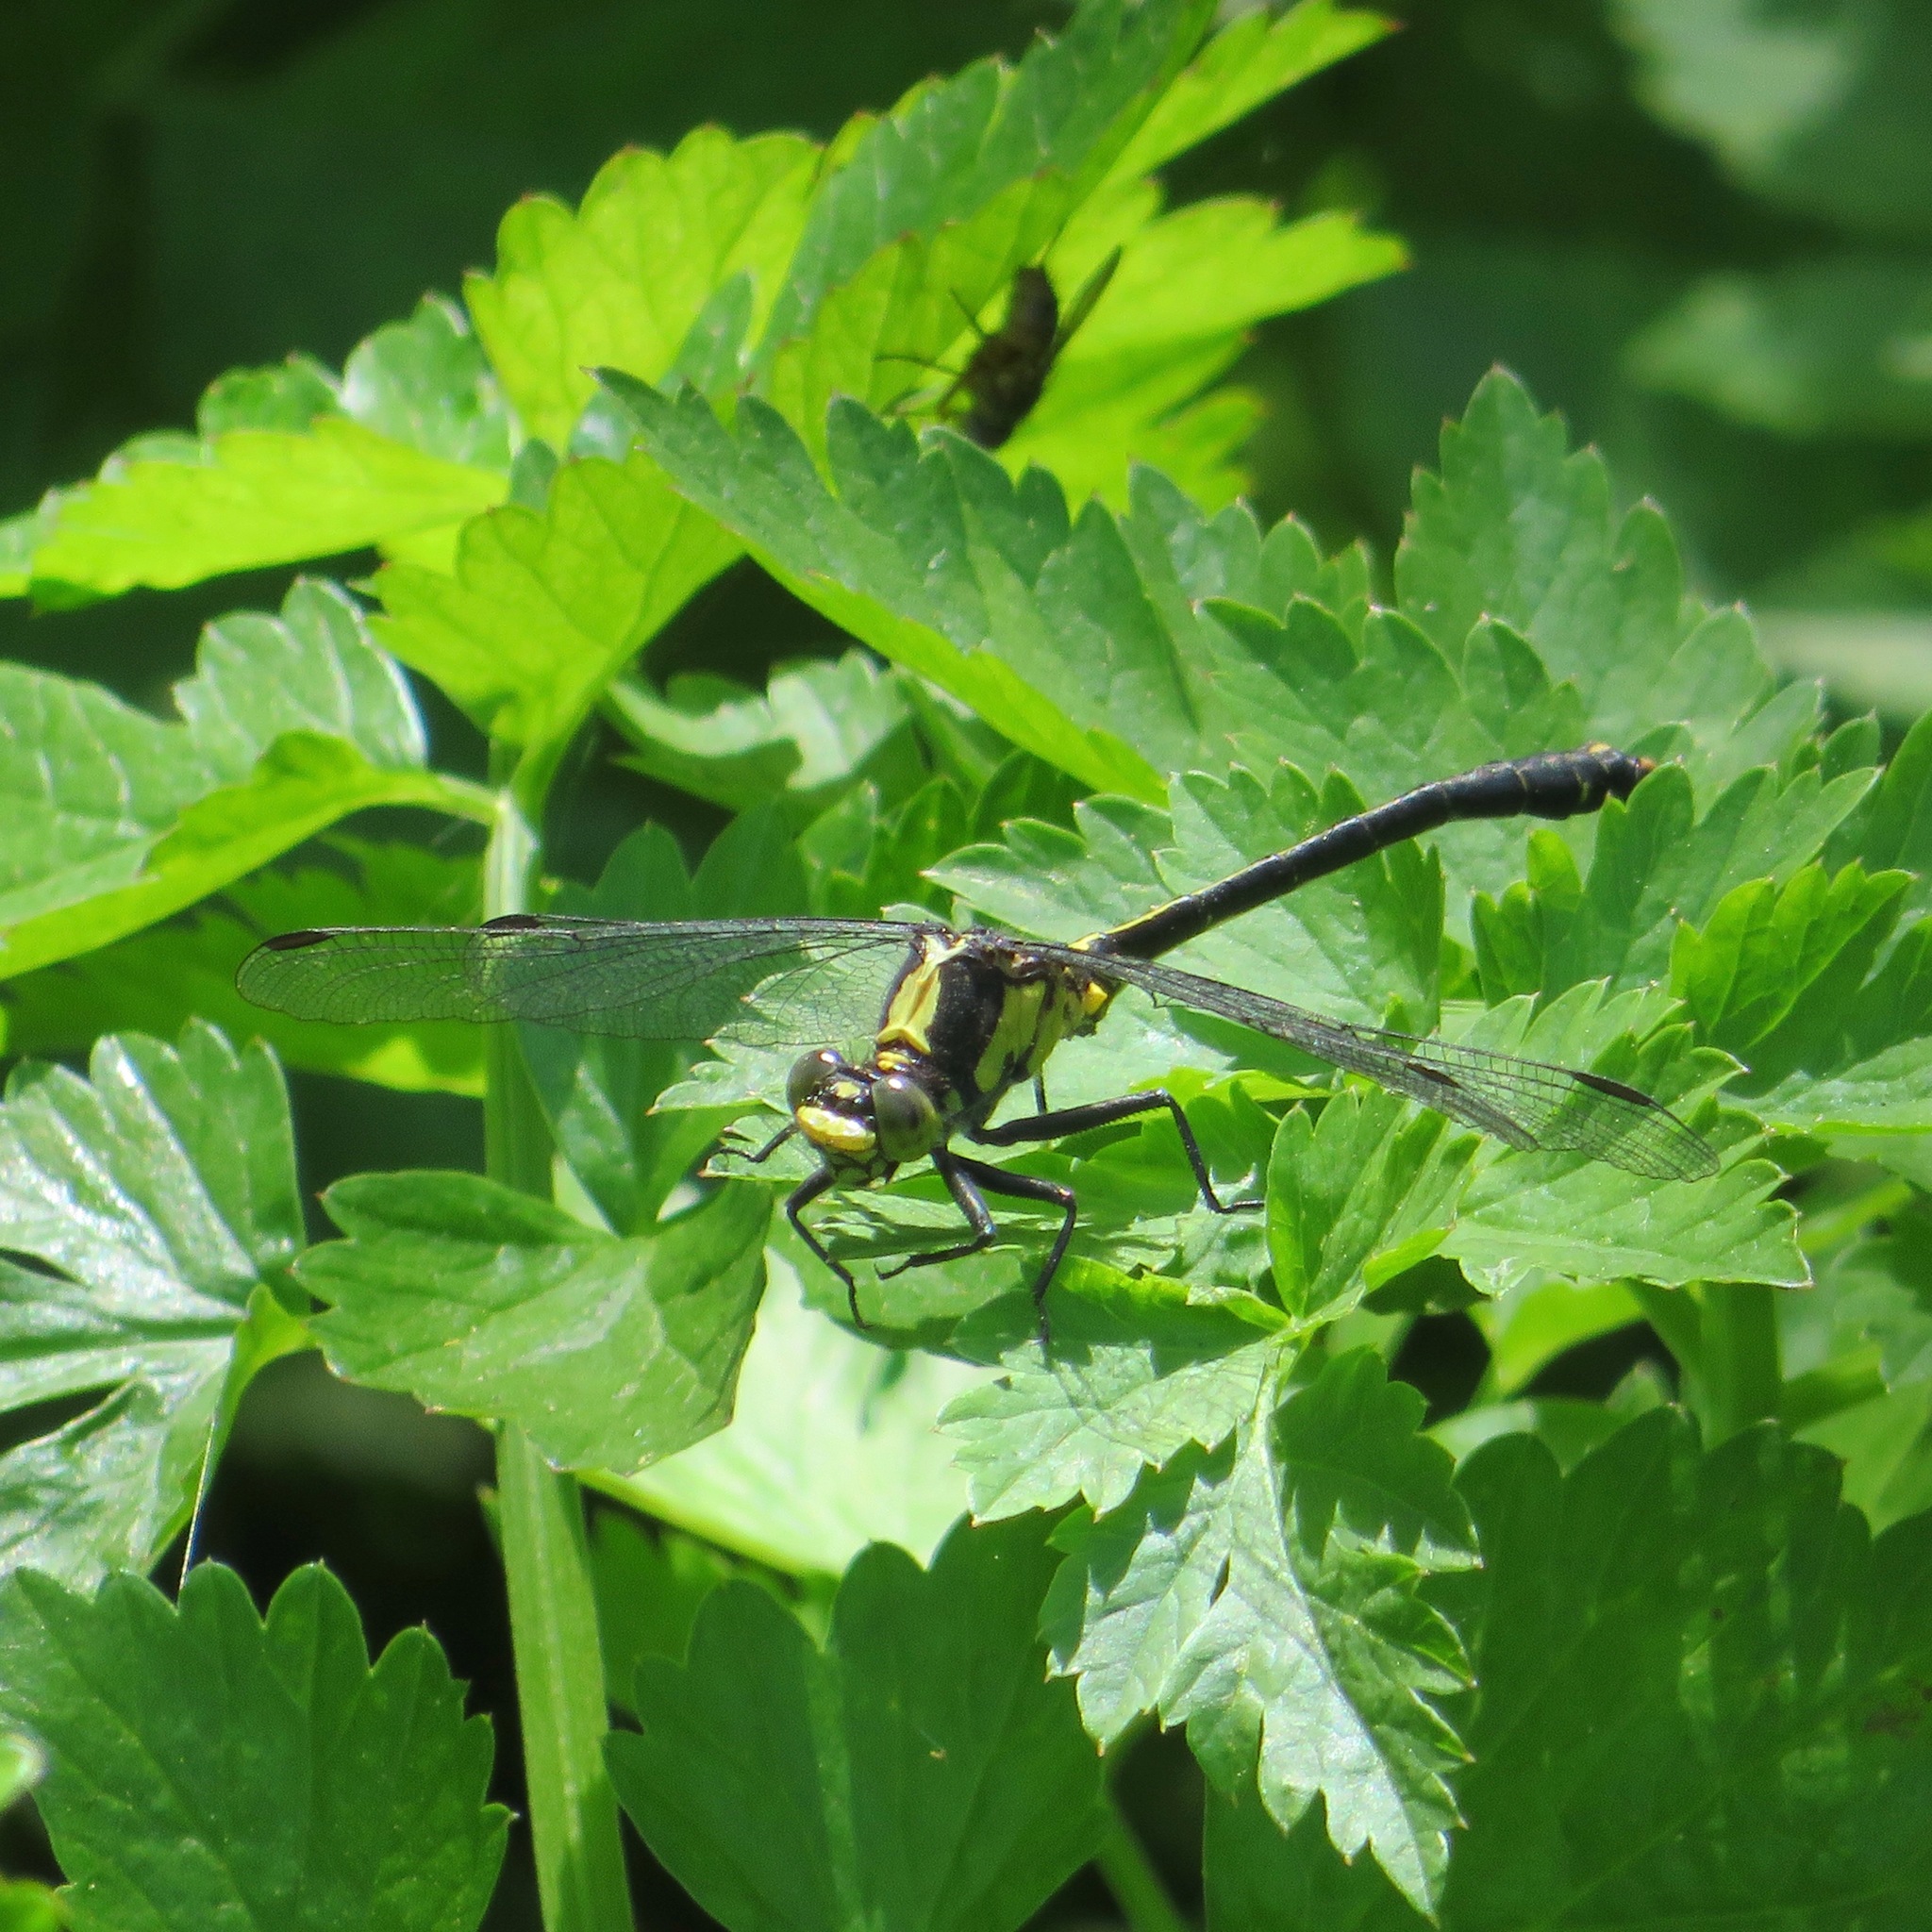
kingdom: Animalia
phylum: Arthropoda
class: Insecta
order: Odonata
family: Gomphidae
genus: Octogomphus
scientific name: Octogomphus specularis
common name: Grappletail
